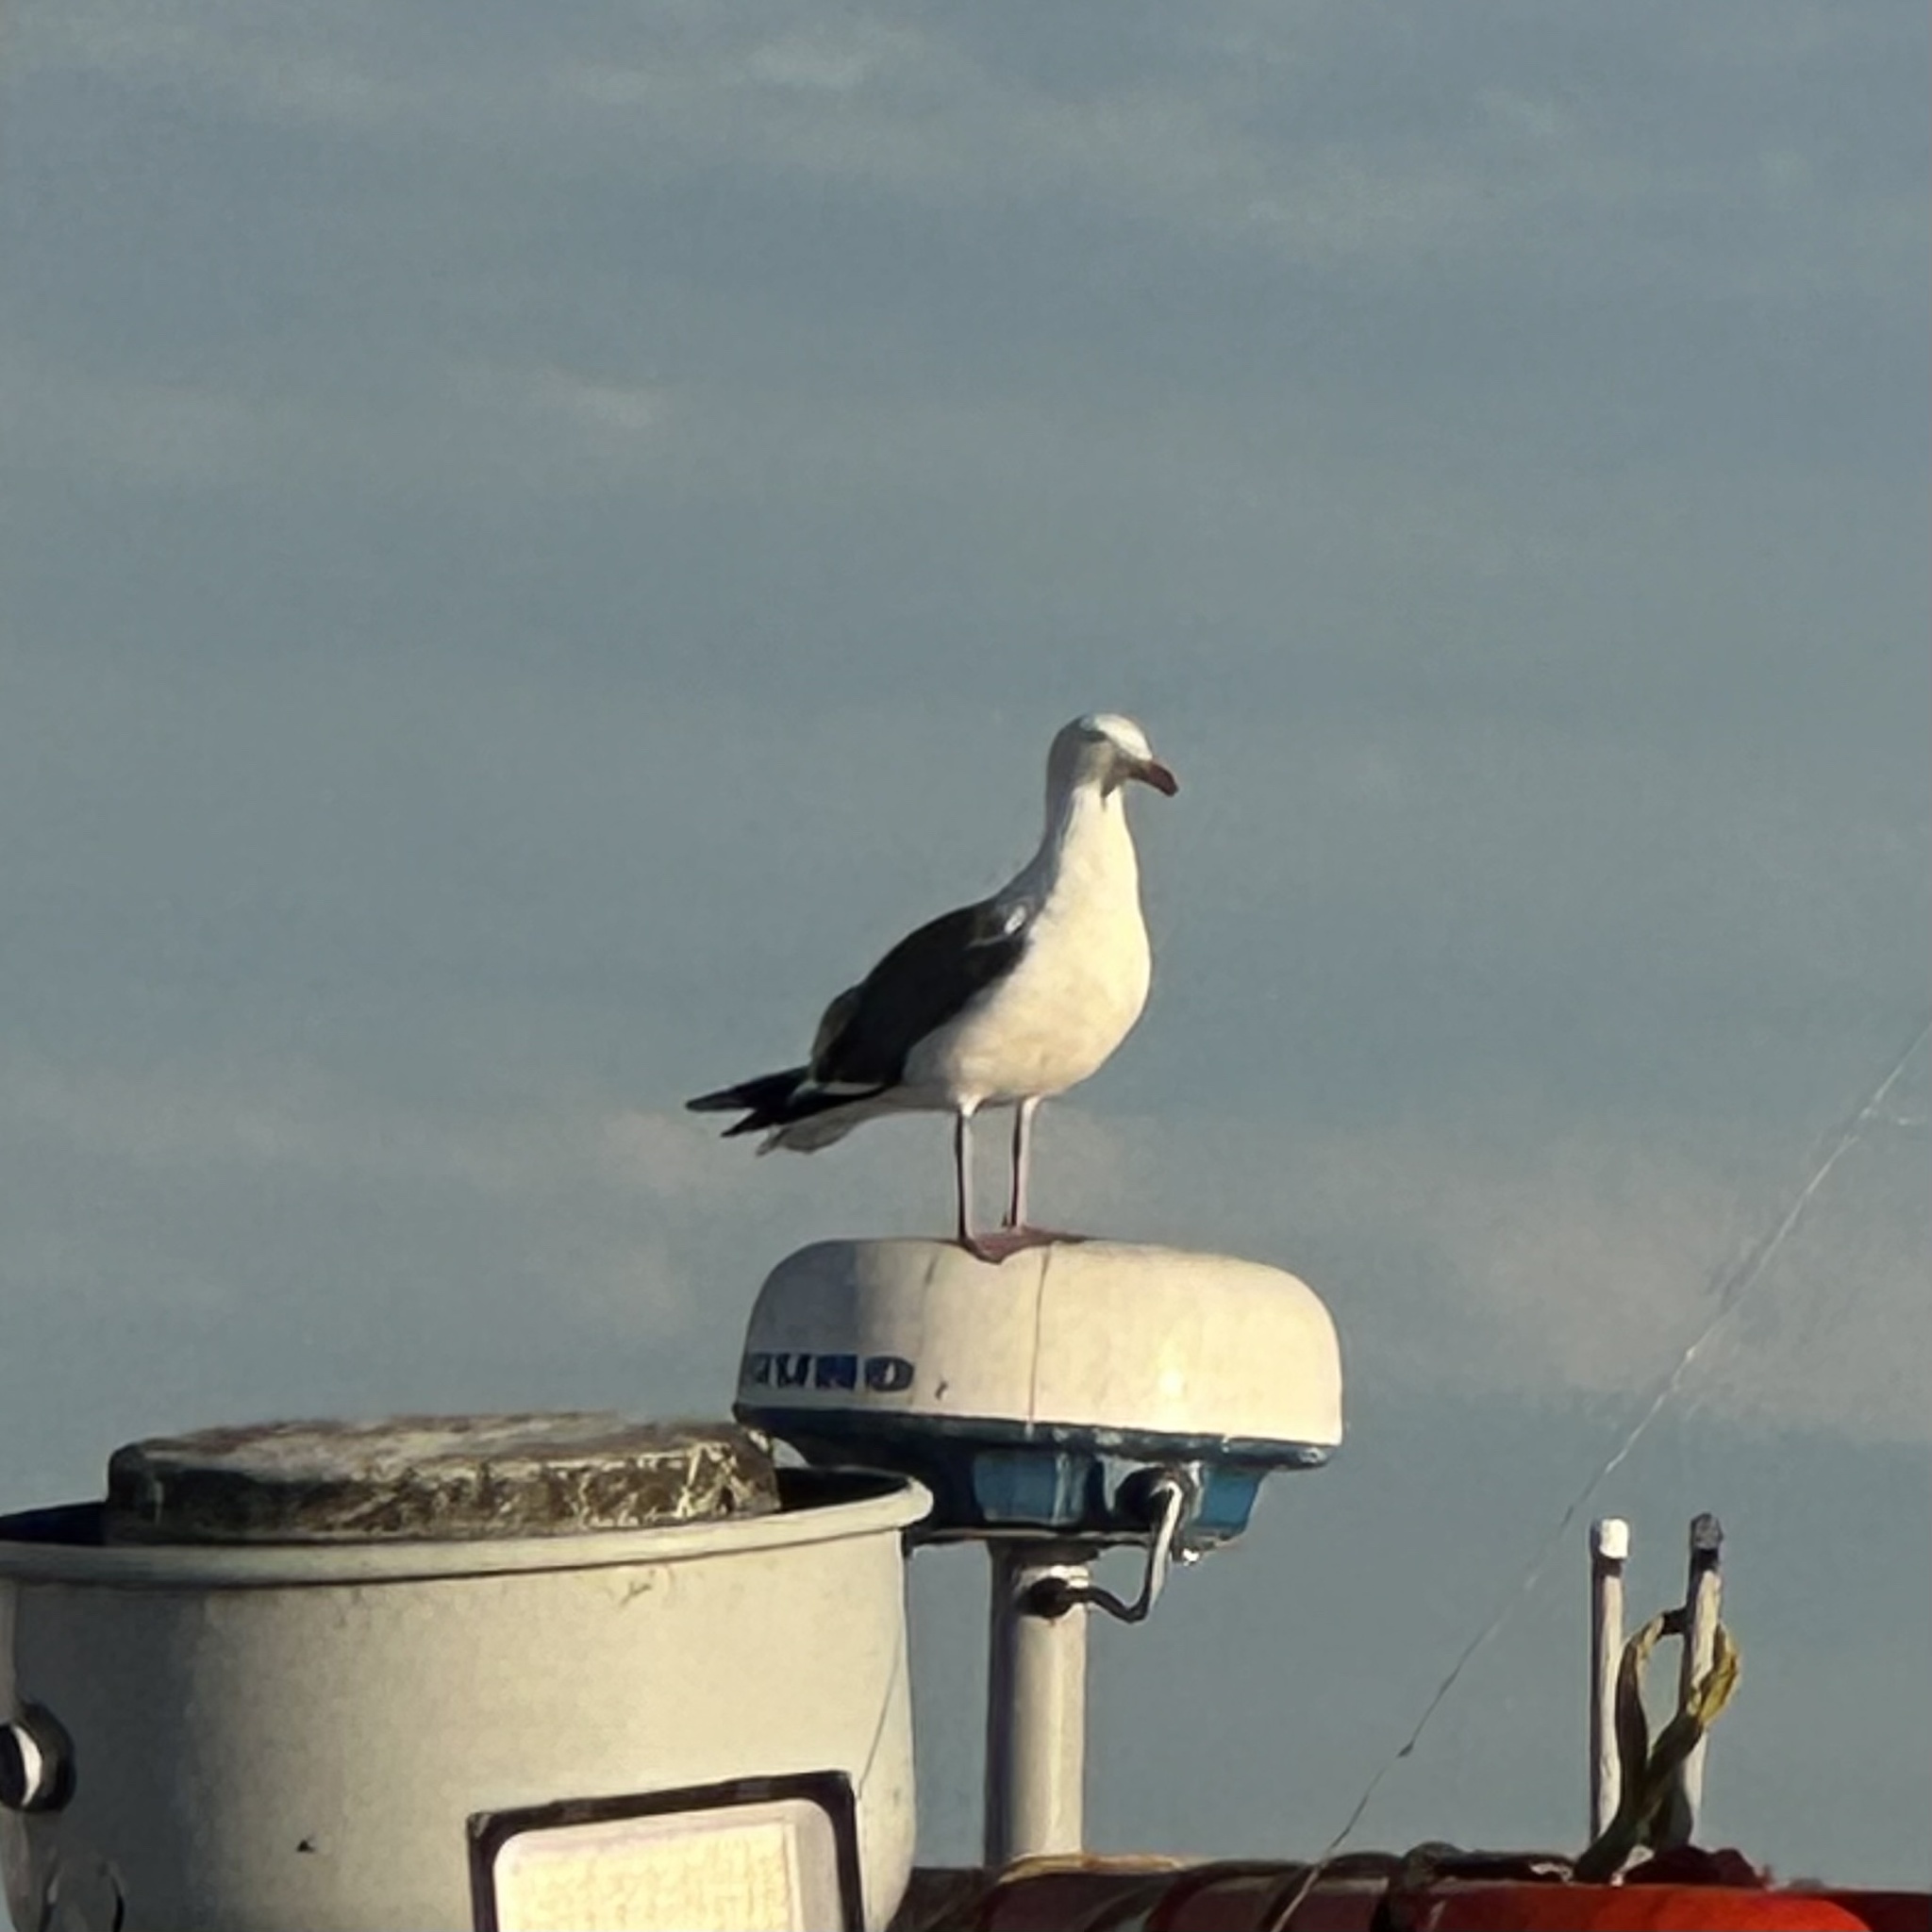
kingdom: Animalia
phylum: Chordata
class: Aves
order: Charadriiformes
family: Laridae
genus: Larus
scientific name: Larus occidentalis
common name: Western gull
